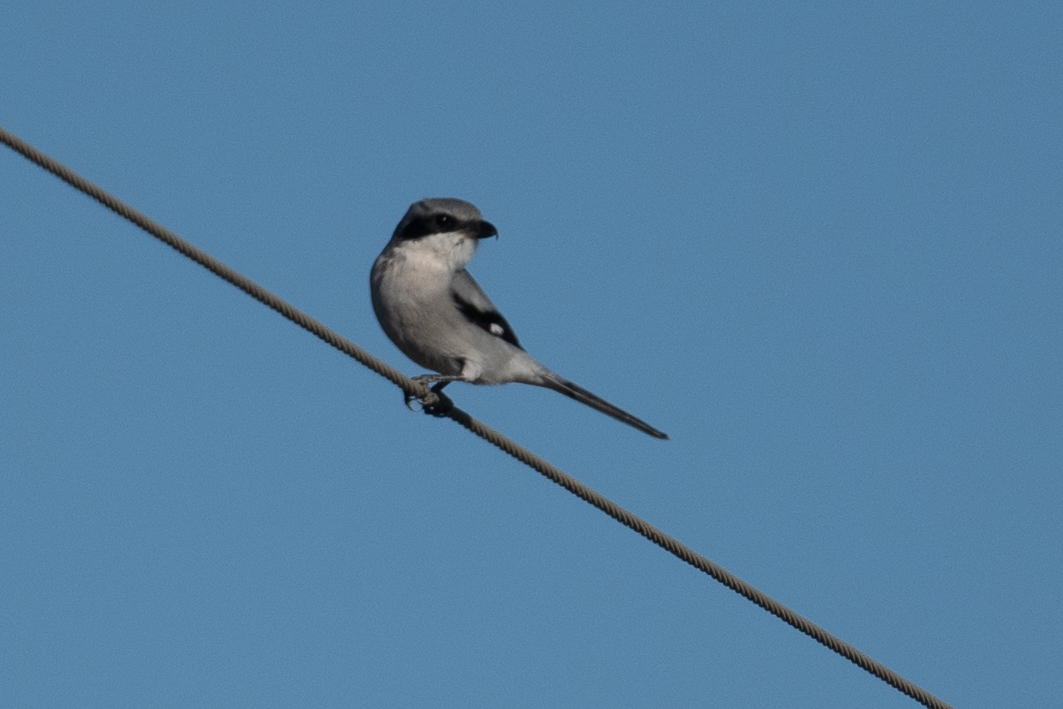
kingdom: Animalia
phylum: Chordata
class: Aves
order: Passeriformes
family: Laniidae
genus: Lanius
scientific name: Lanius ludovicianus
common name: Loggerhead shrike
